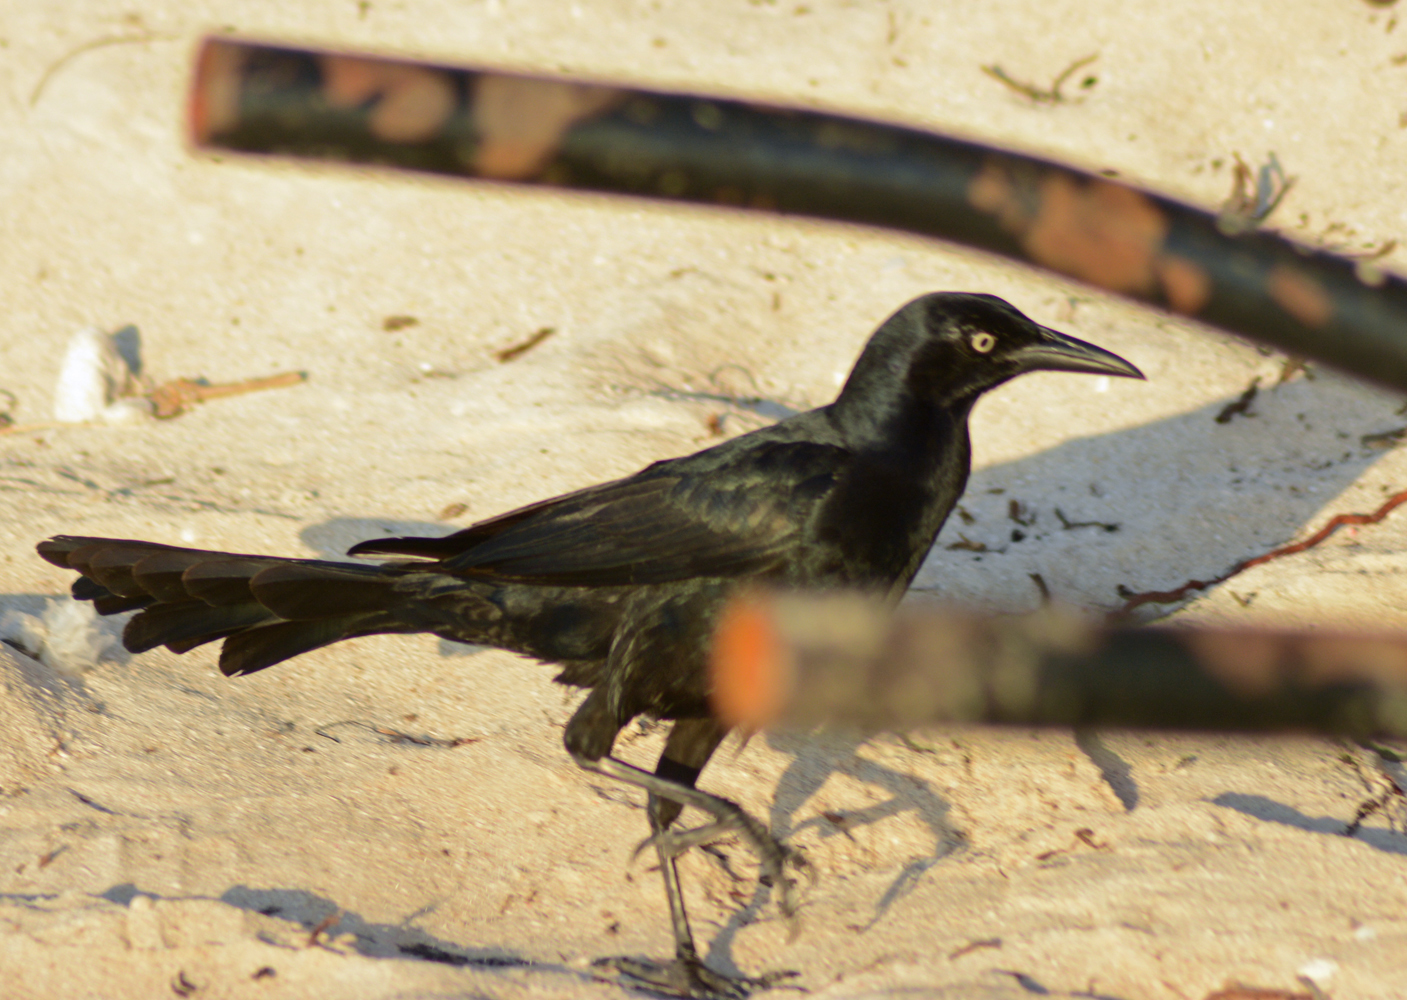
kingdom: Animalia
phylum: Chordata
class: Aves
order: Passeriformes
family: Icteridae
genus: Quiscalus
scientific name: Quiscalus mexicanus
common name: Great-tailed grackle
